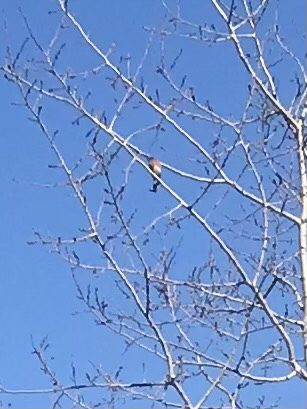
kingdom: Animalia
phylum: Chordata
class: Aves
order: Passeriformes
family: Turdidae
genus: Sialia
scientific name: Sialia sialis
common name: Eastern bluebird
